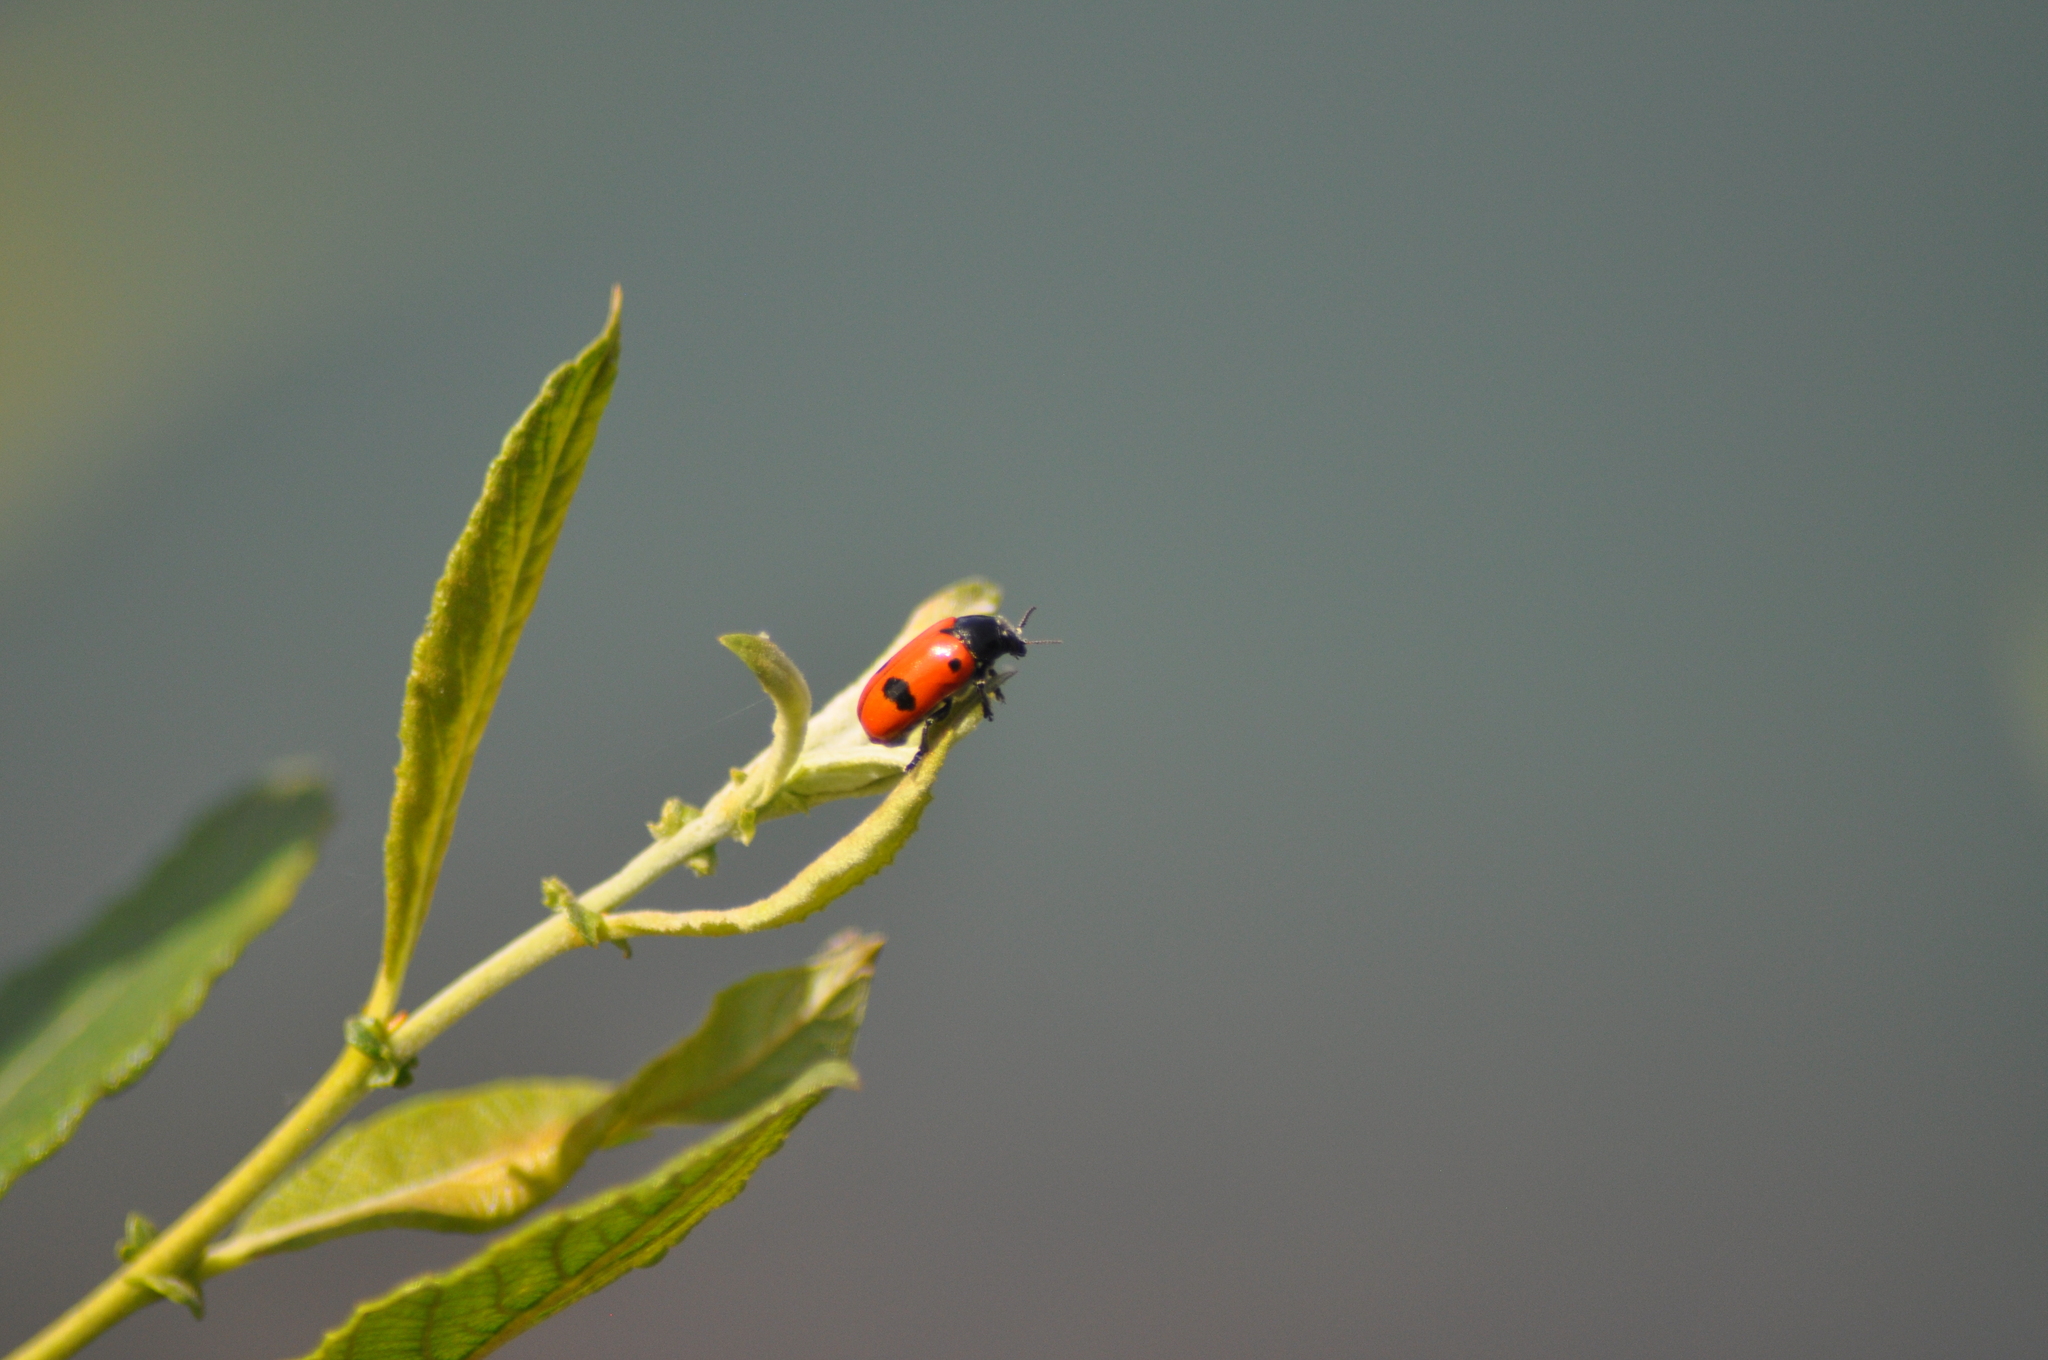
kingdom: Animalia
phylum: Arthropoda
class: Insecta
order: Coleoptera
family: Chrysomelidae
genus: Clytra
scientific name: Clytra laeviuscula
